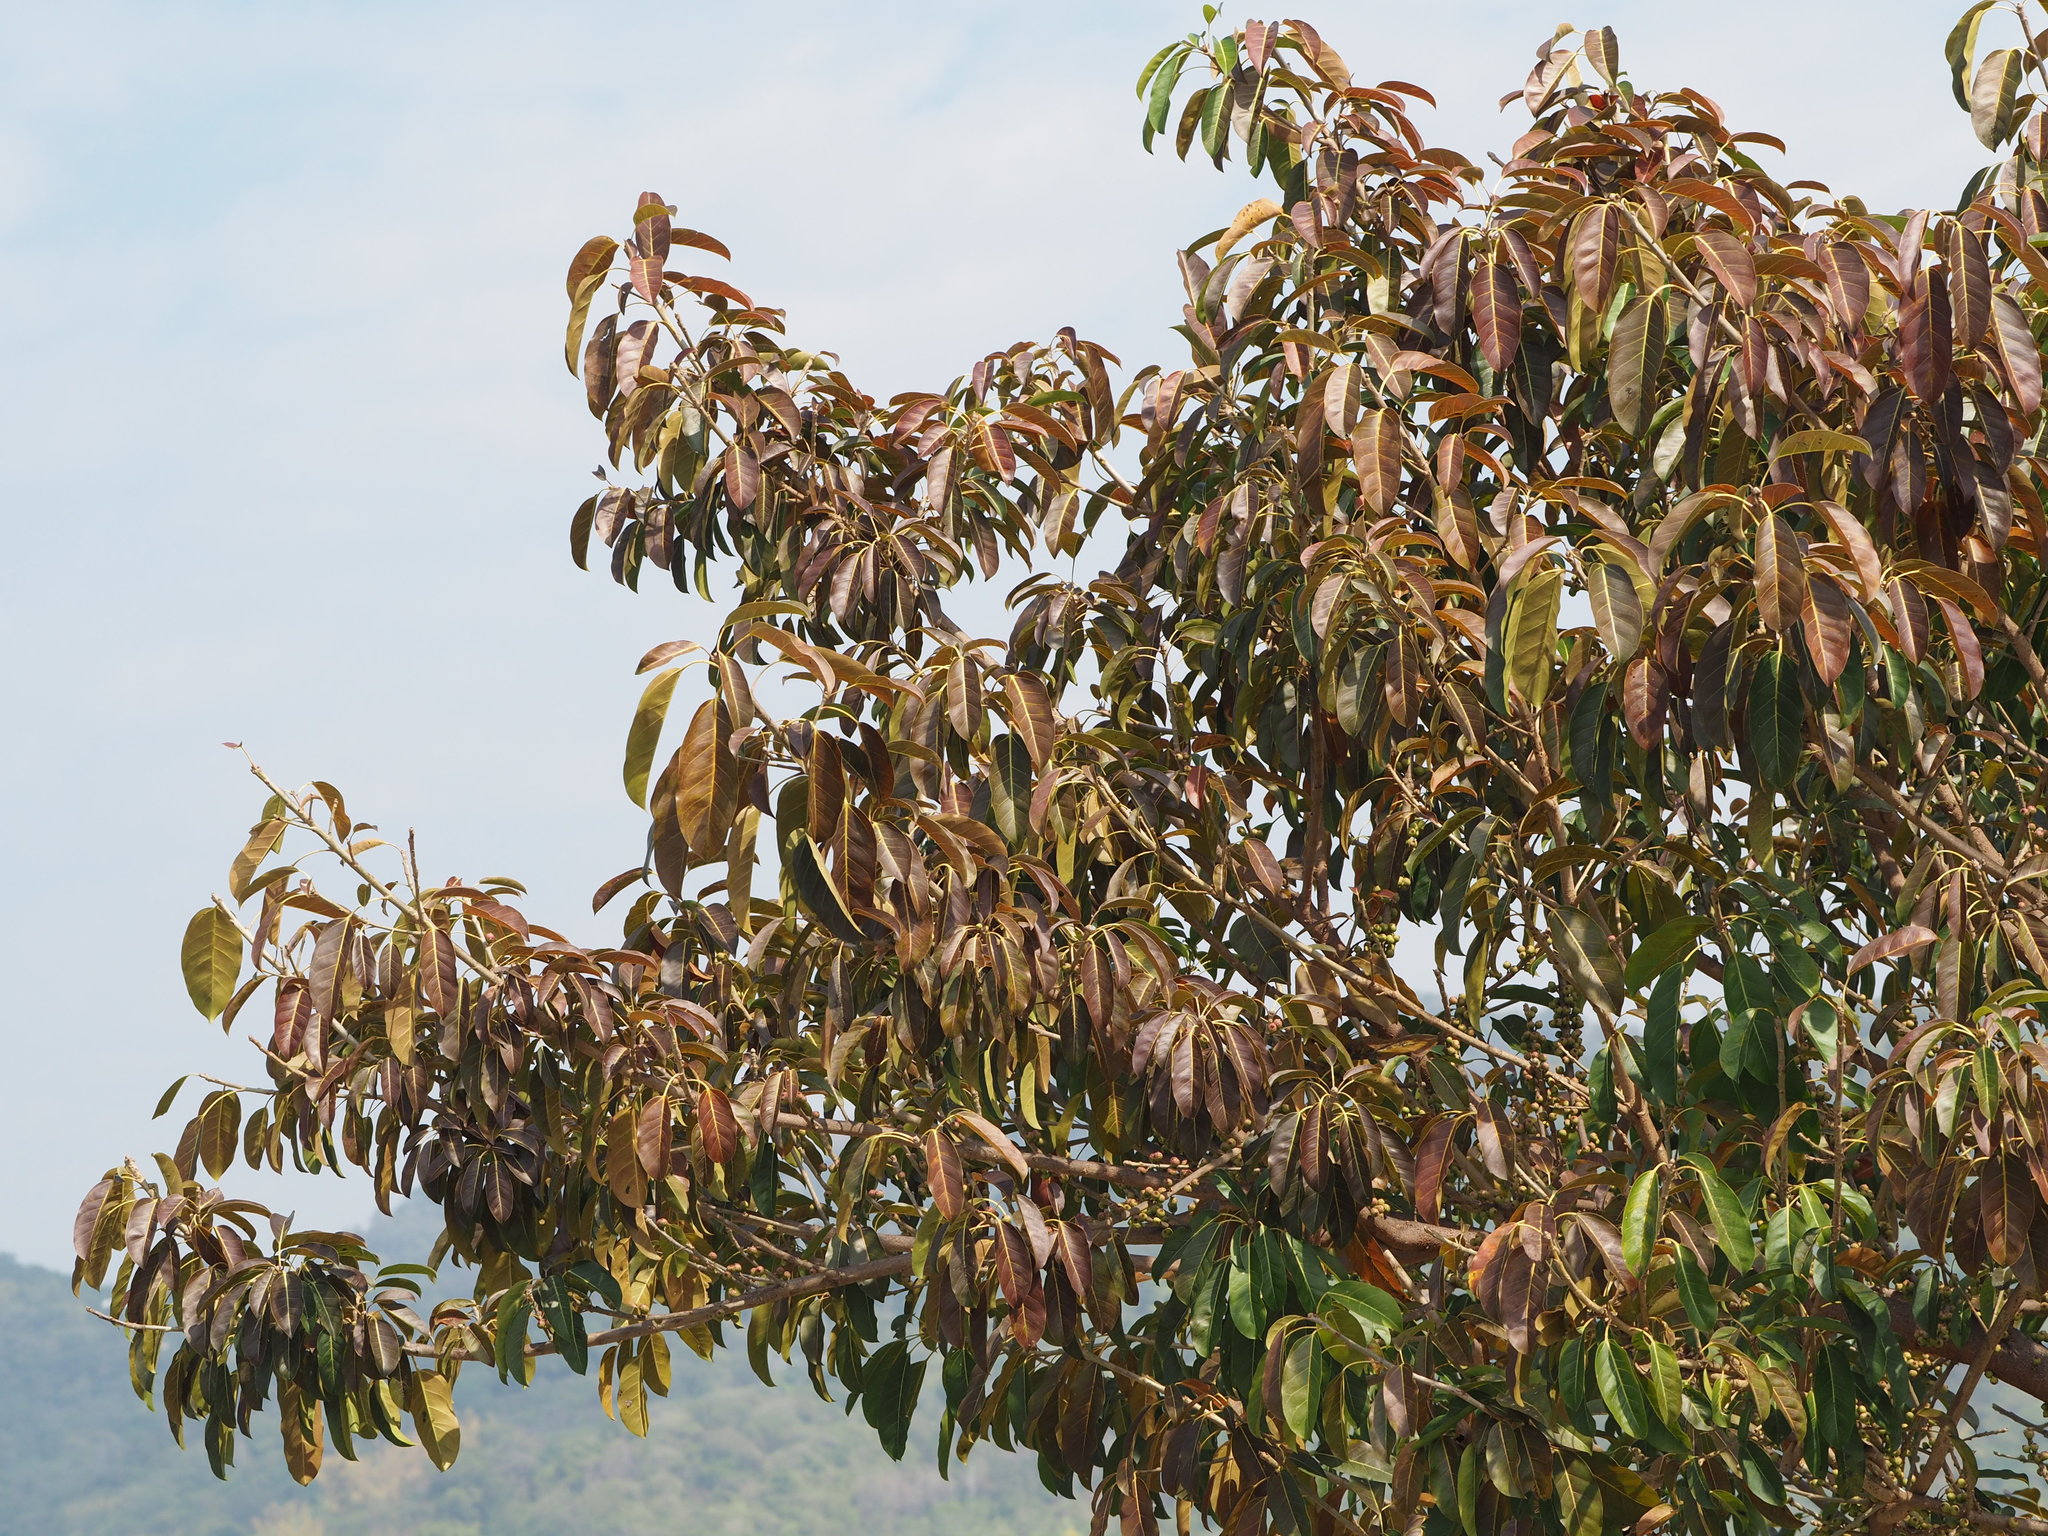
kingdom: Plantae
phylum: Tracheophyta
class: Magnoliopsida
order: Rosales
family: Moraceae
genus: Ficus
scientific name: Ficus subpisocarpa
